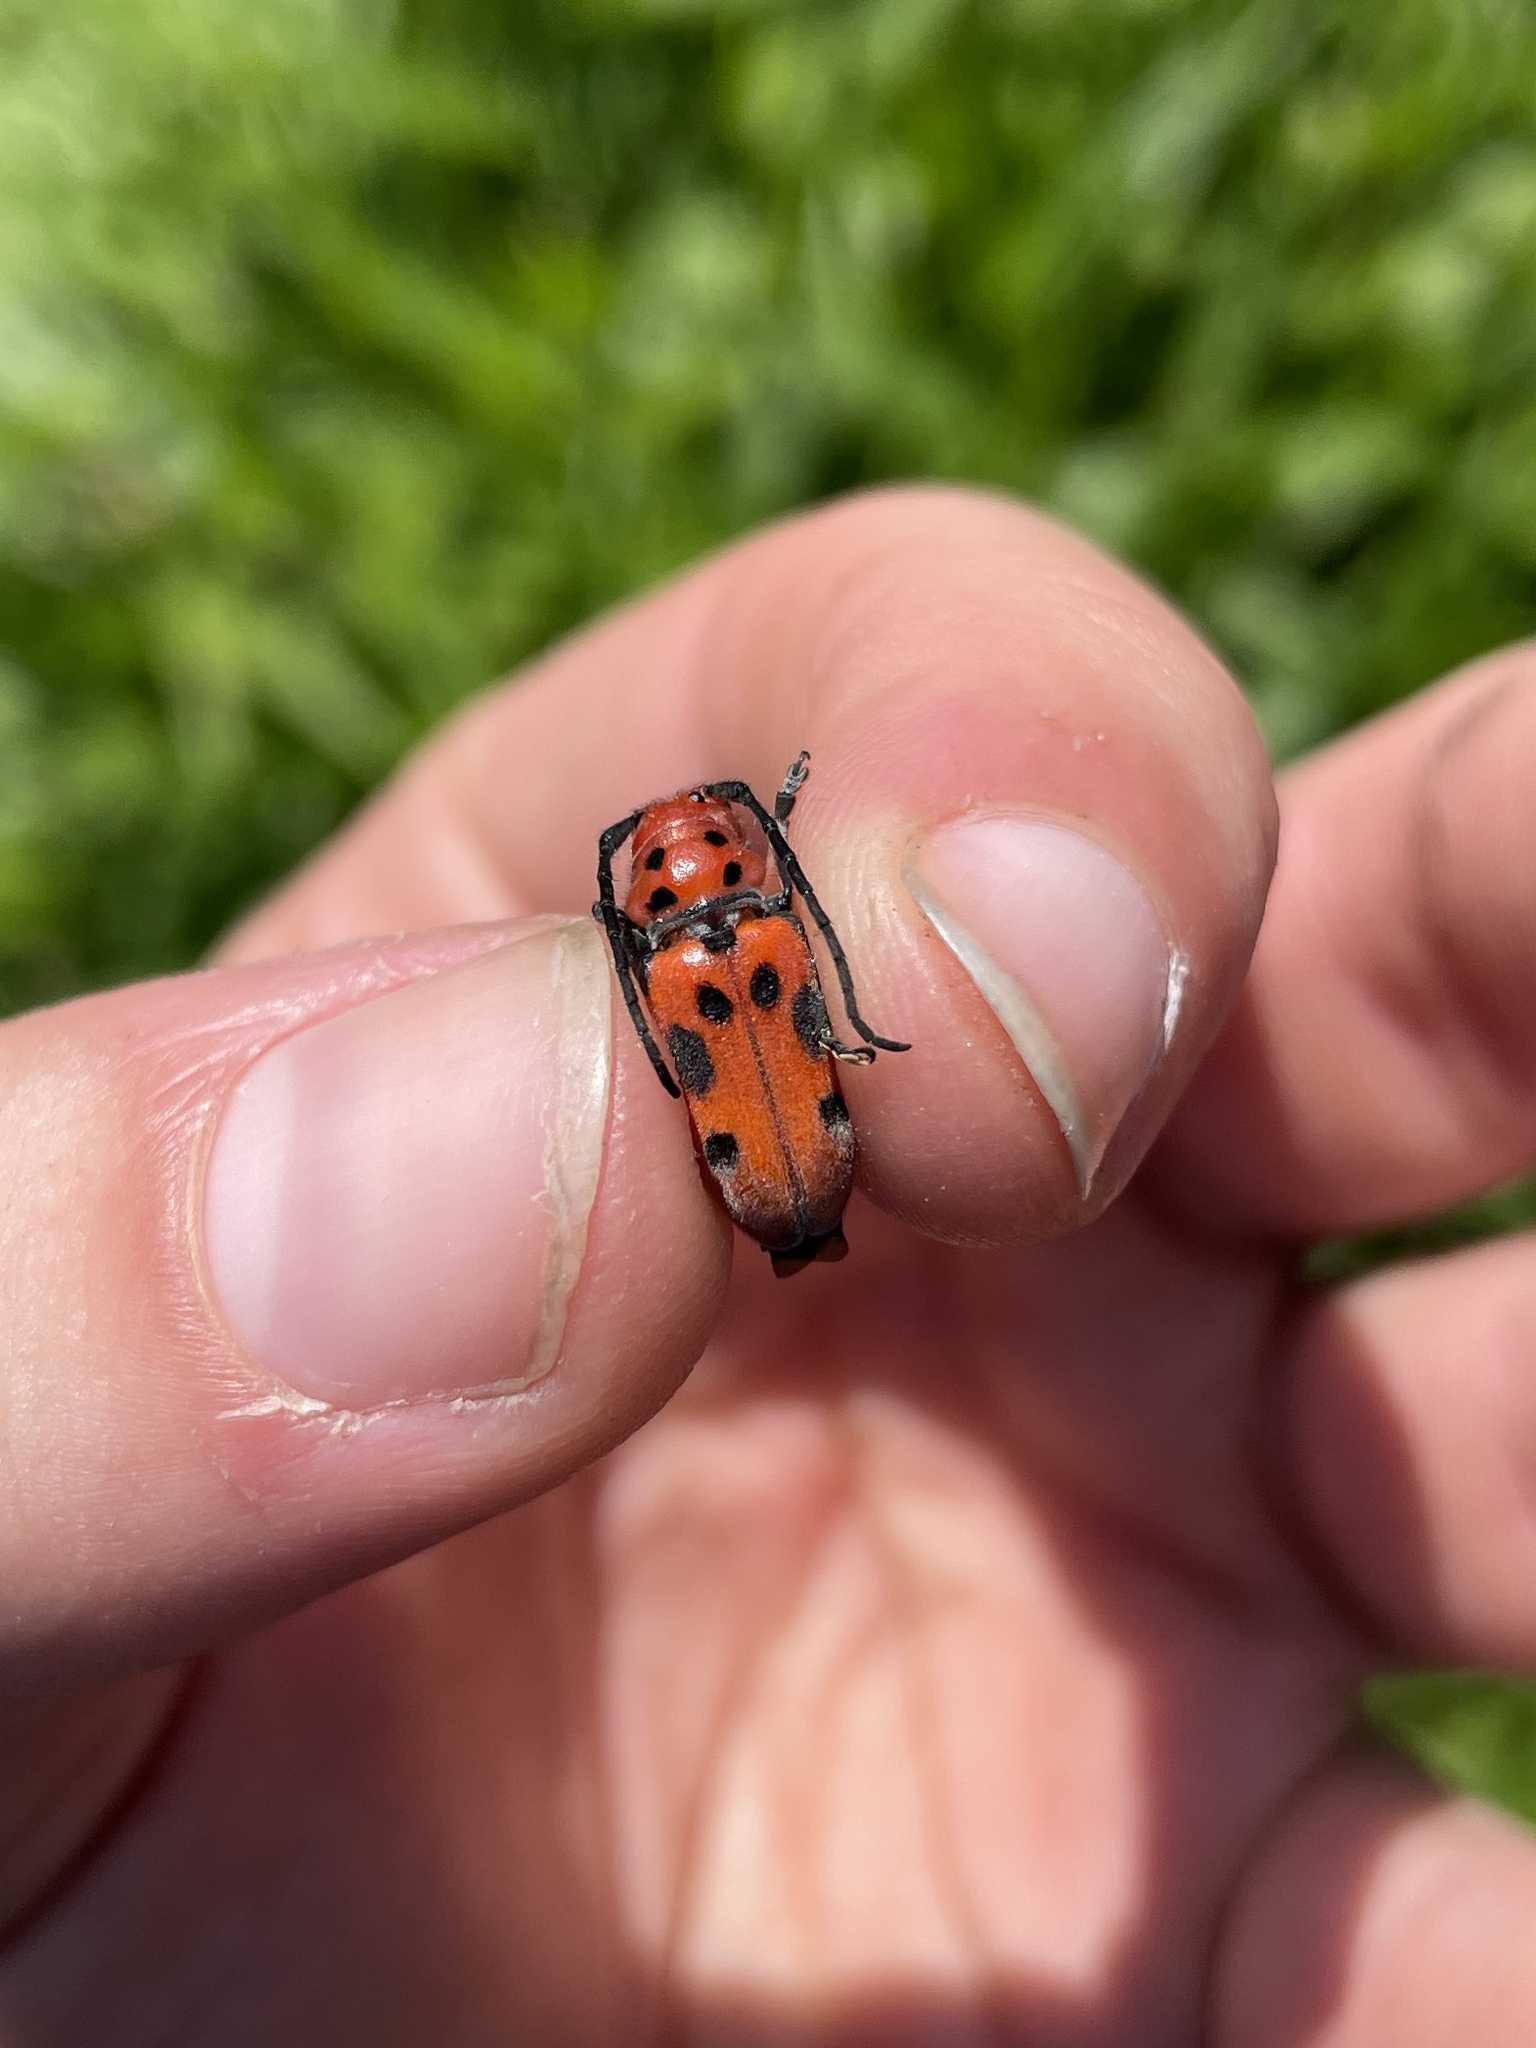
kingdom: Animalia
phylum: Arthropoda
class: Insecta
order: Coleoptera
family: Cerambycidae
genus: Tetraopes
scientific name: Tetraopes tetrophthalmus
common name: Red milkweed beetle
